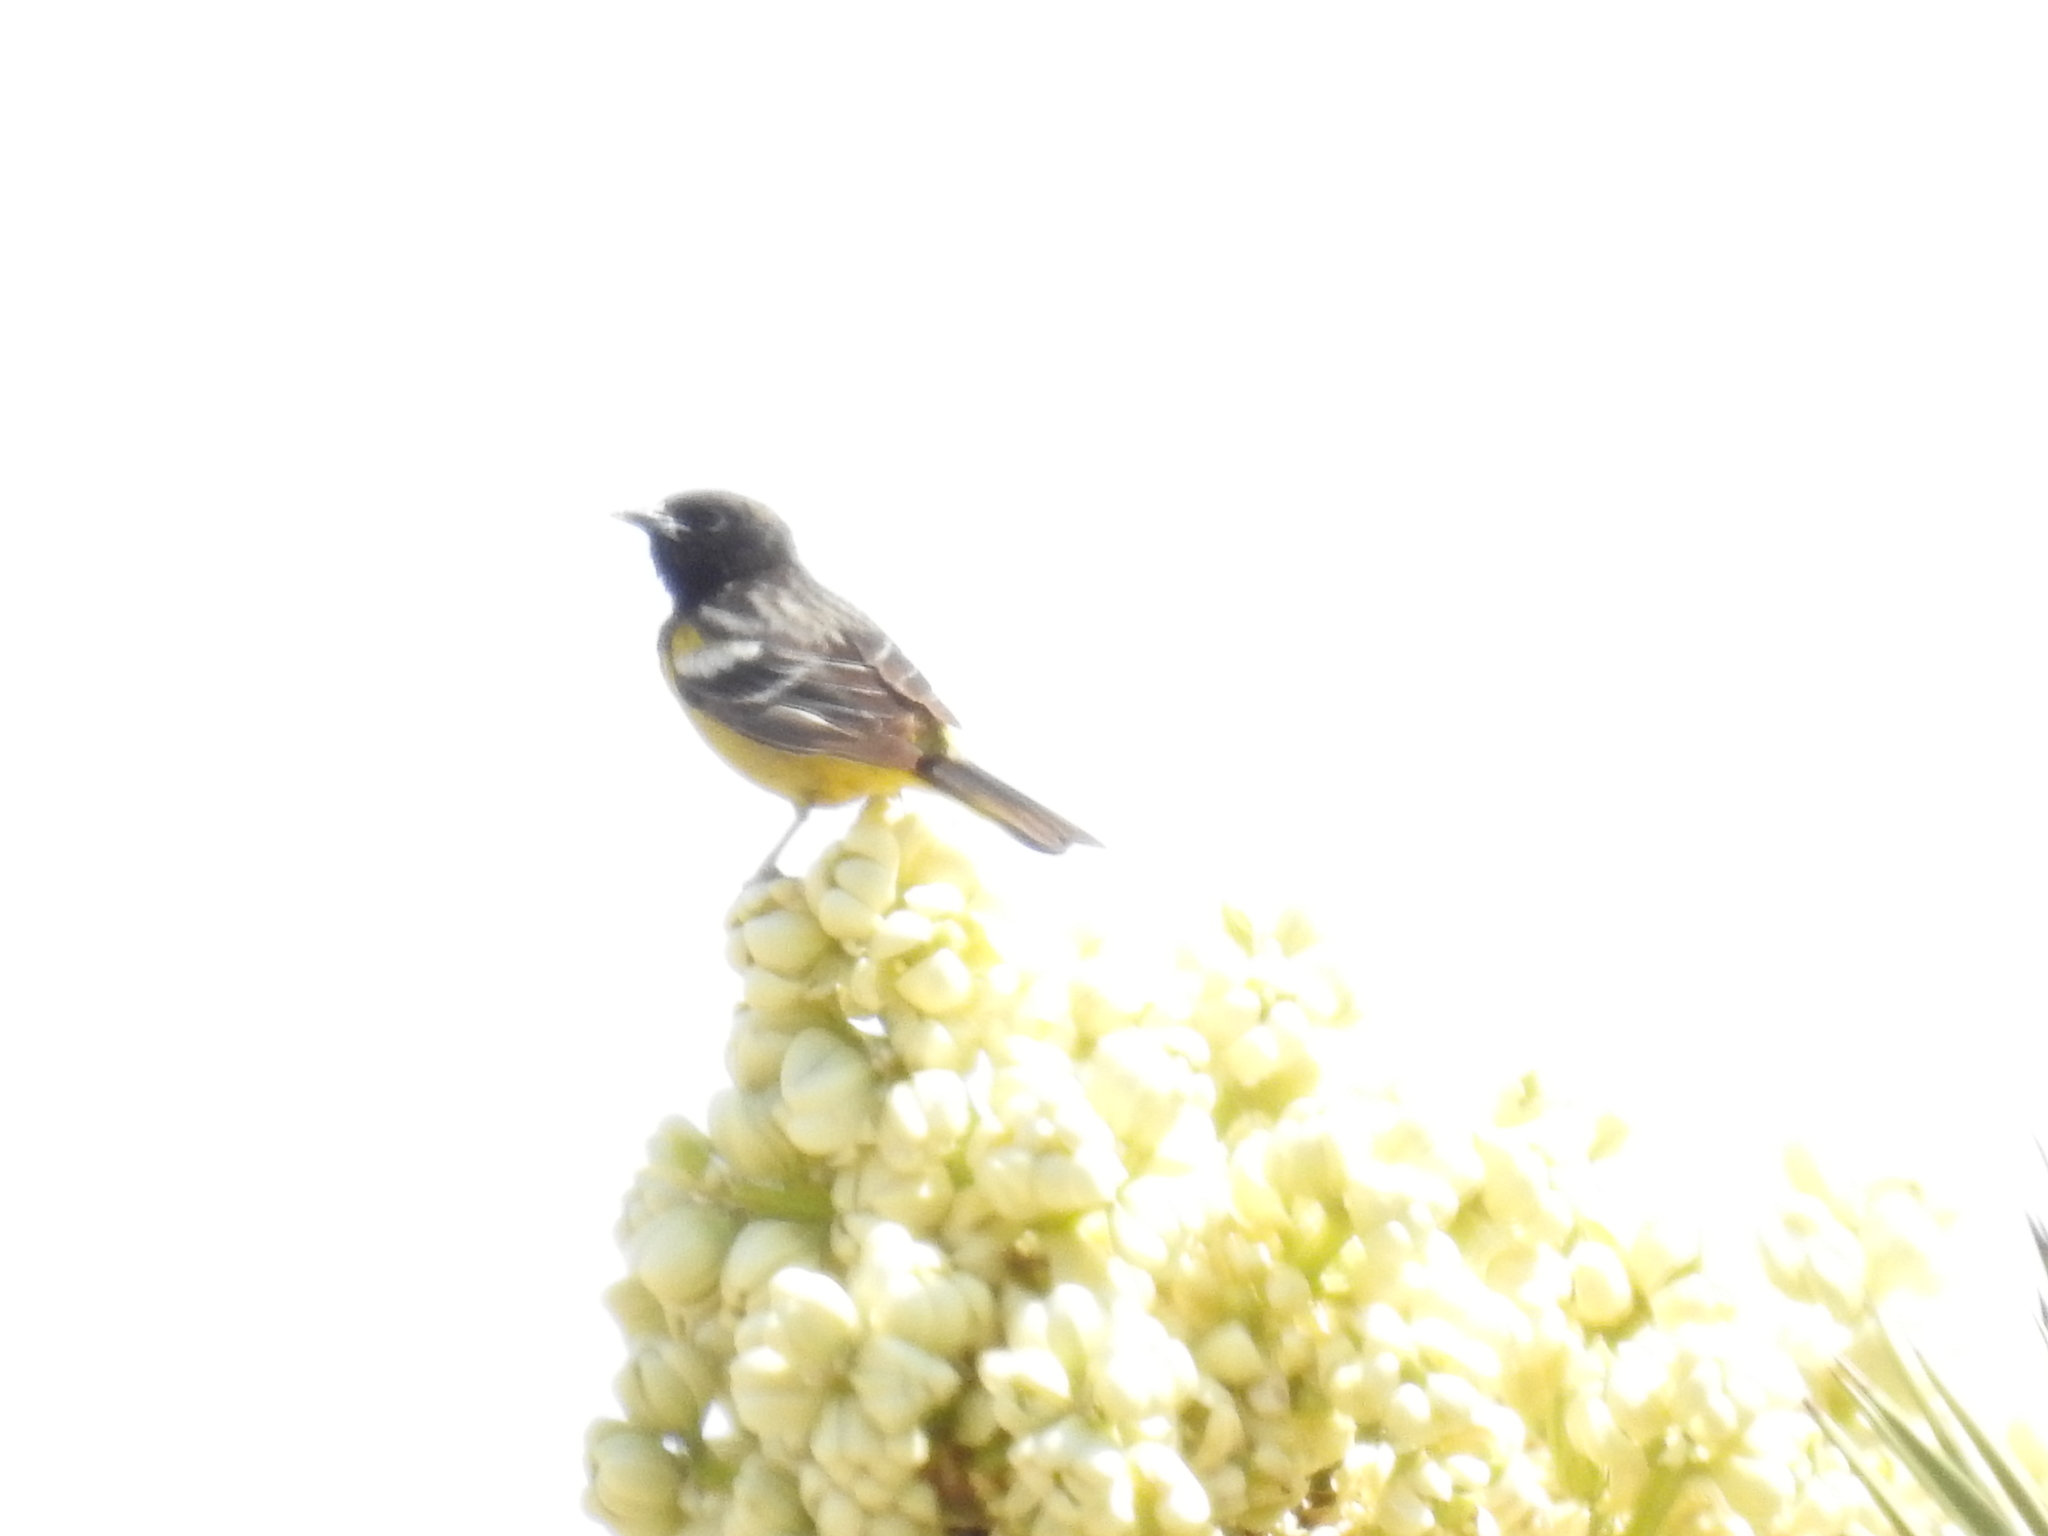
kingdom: Animalia
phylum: Chordata
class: Aves
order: Passeriformes
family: Icteridae
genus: Icterus
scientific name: Icterus parisorum
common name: Scott's oriole
